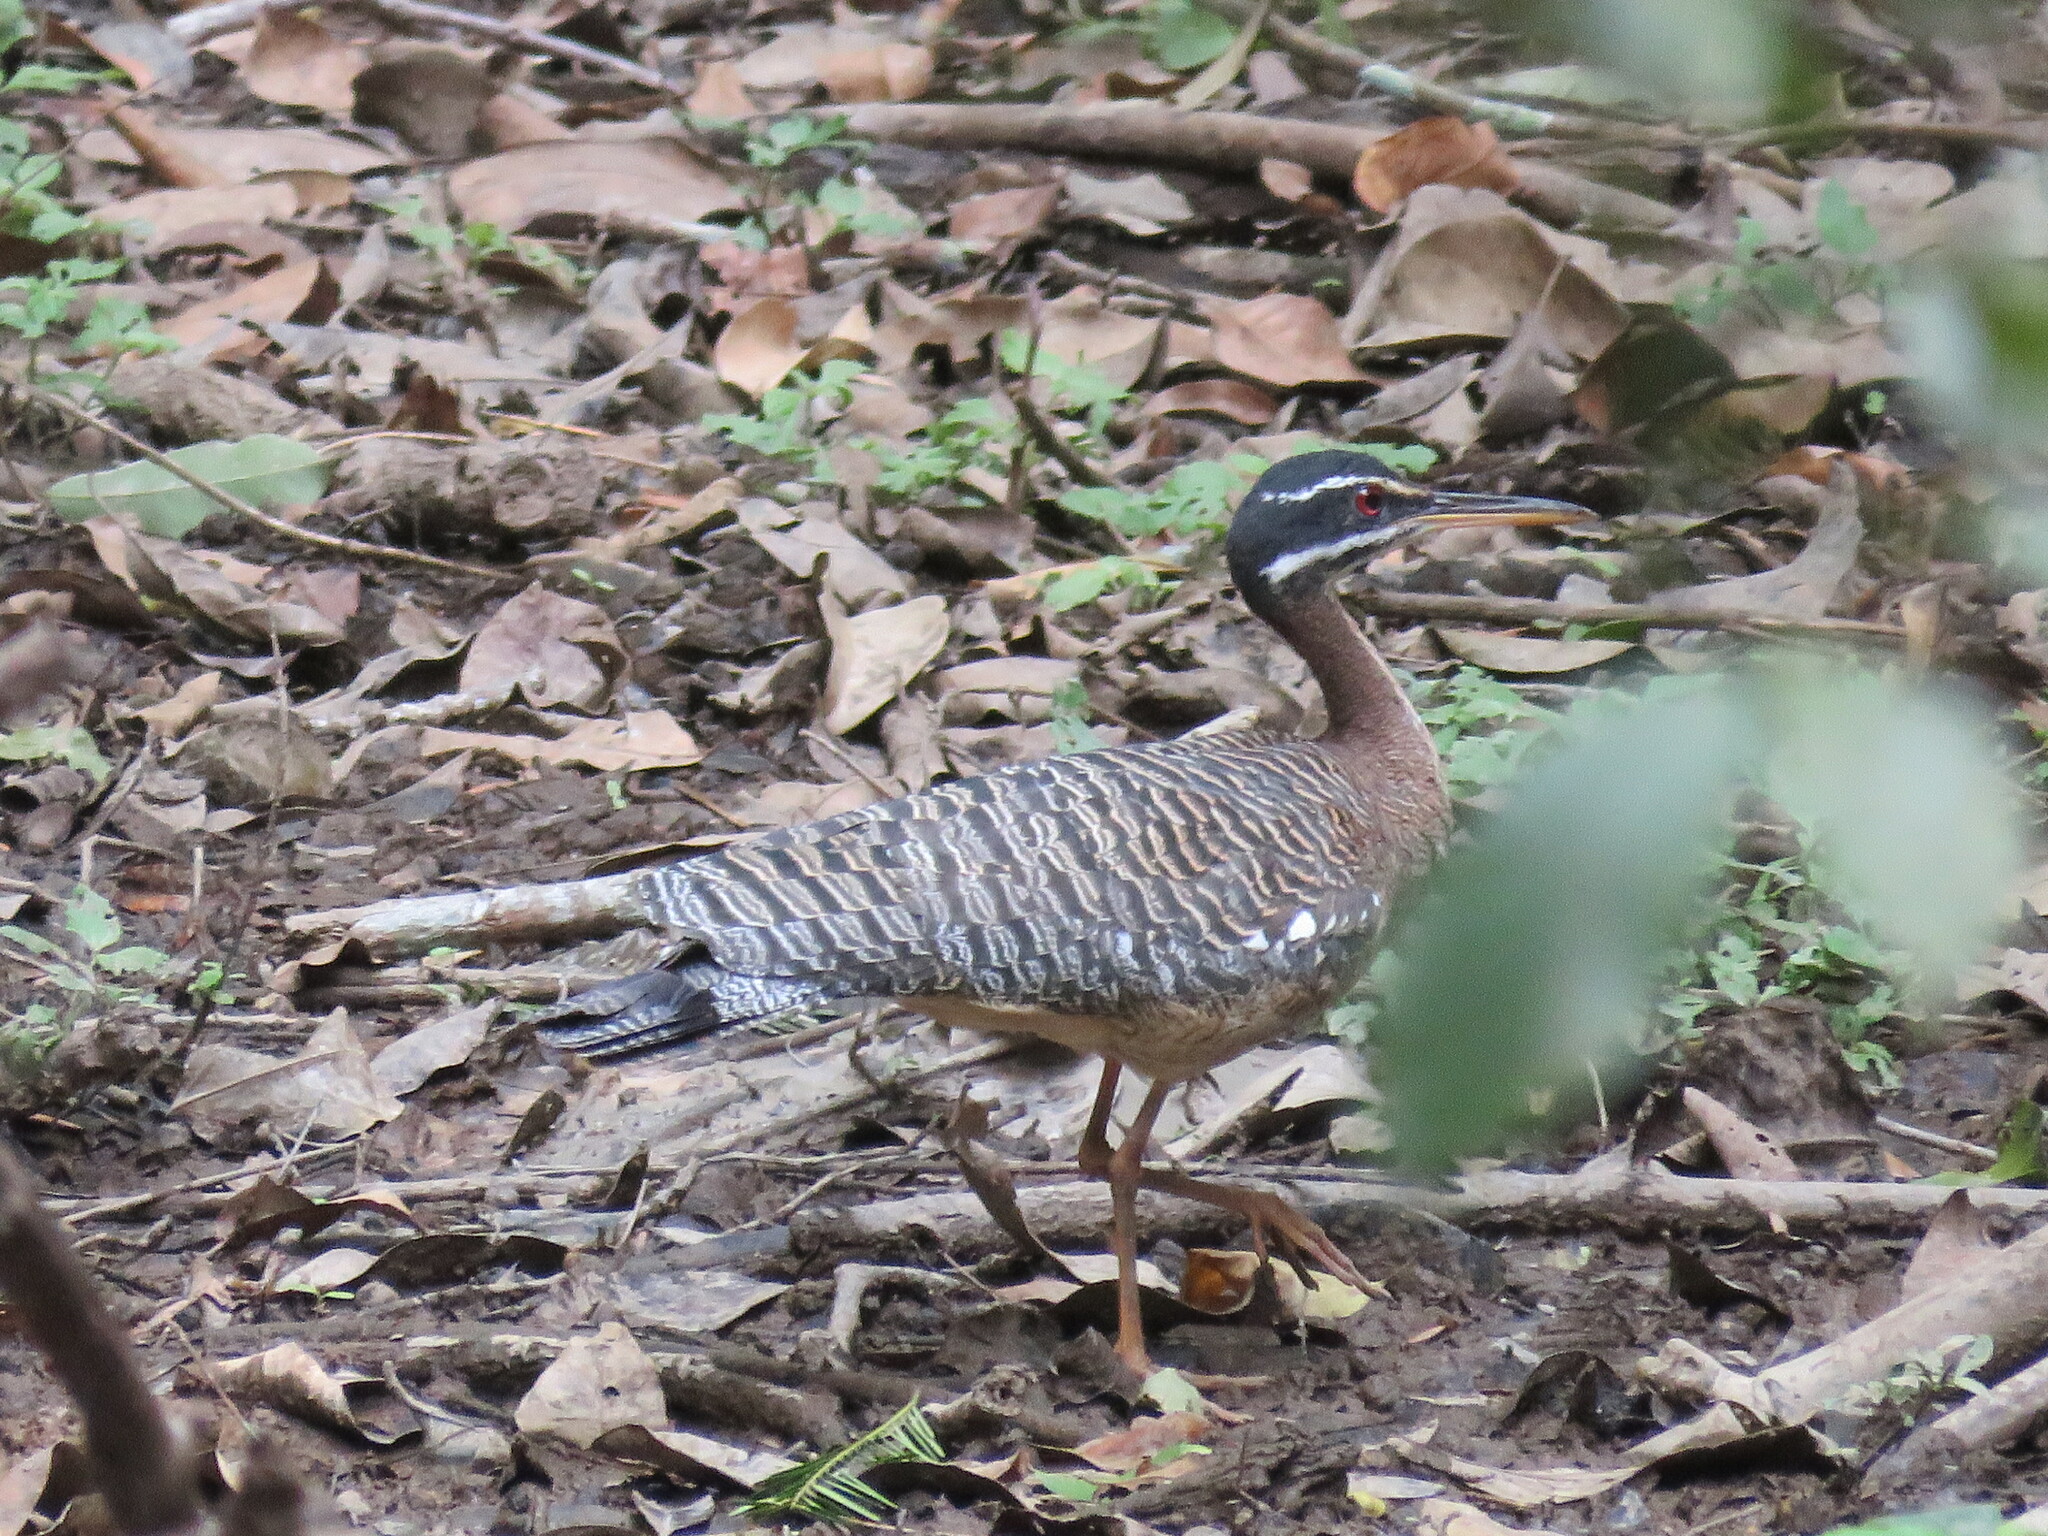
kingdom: Animalia
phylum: Chordata
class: Aves
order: Eurypygiformes
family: Eurypygidae
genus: Eurypyga
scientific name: Eurypyga helias
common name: Sunbittern
